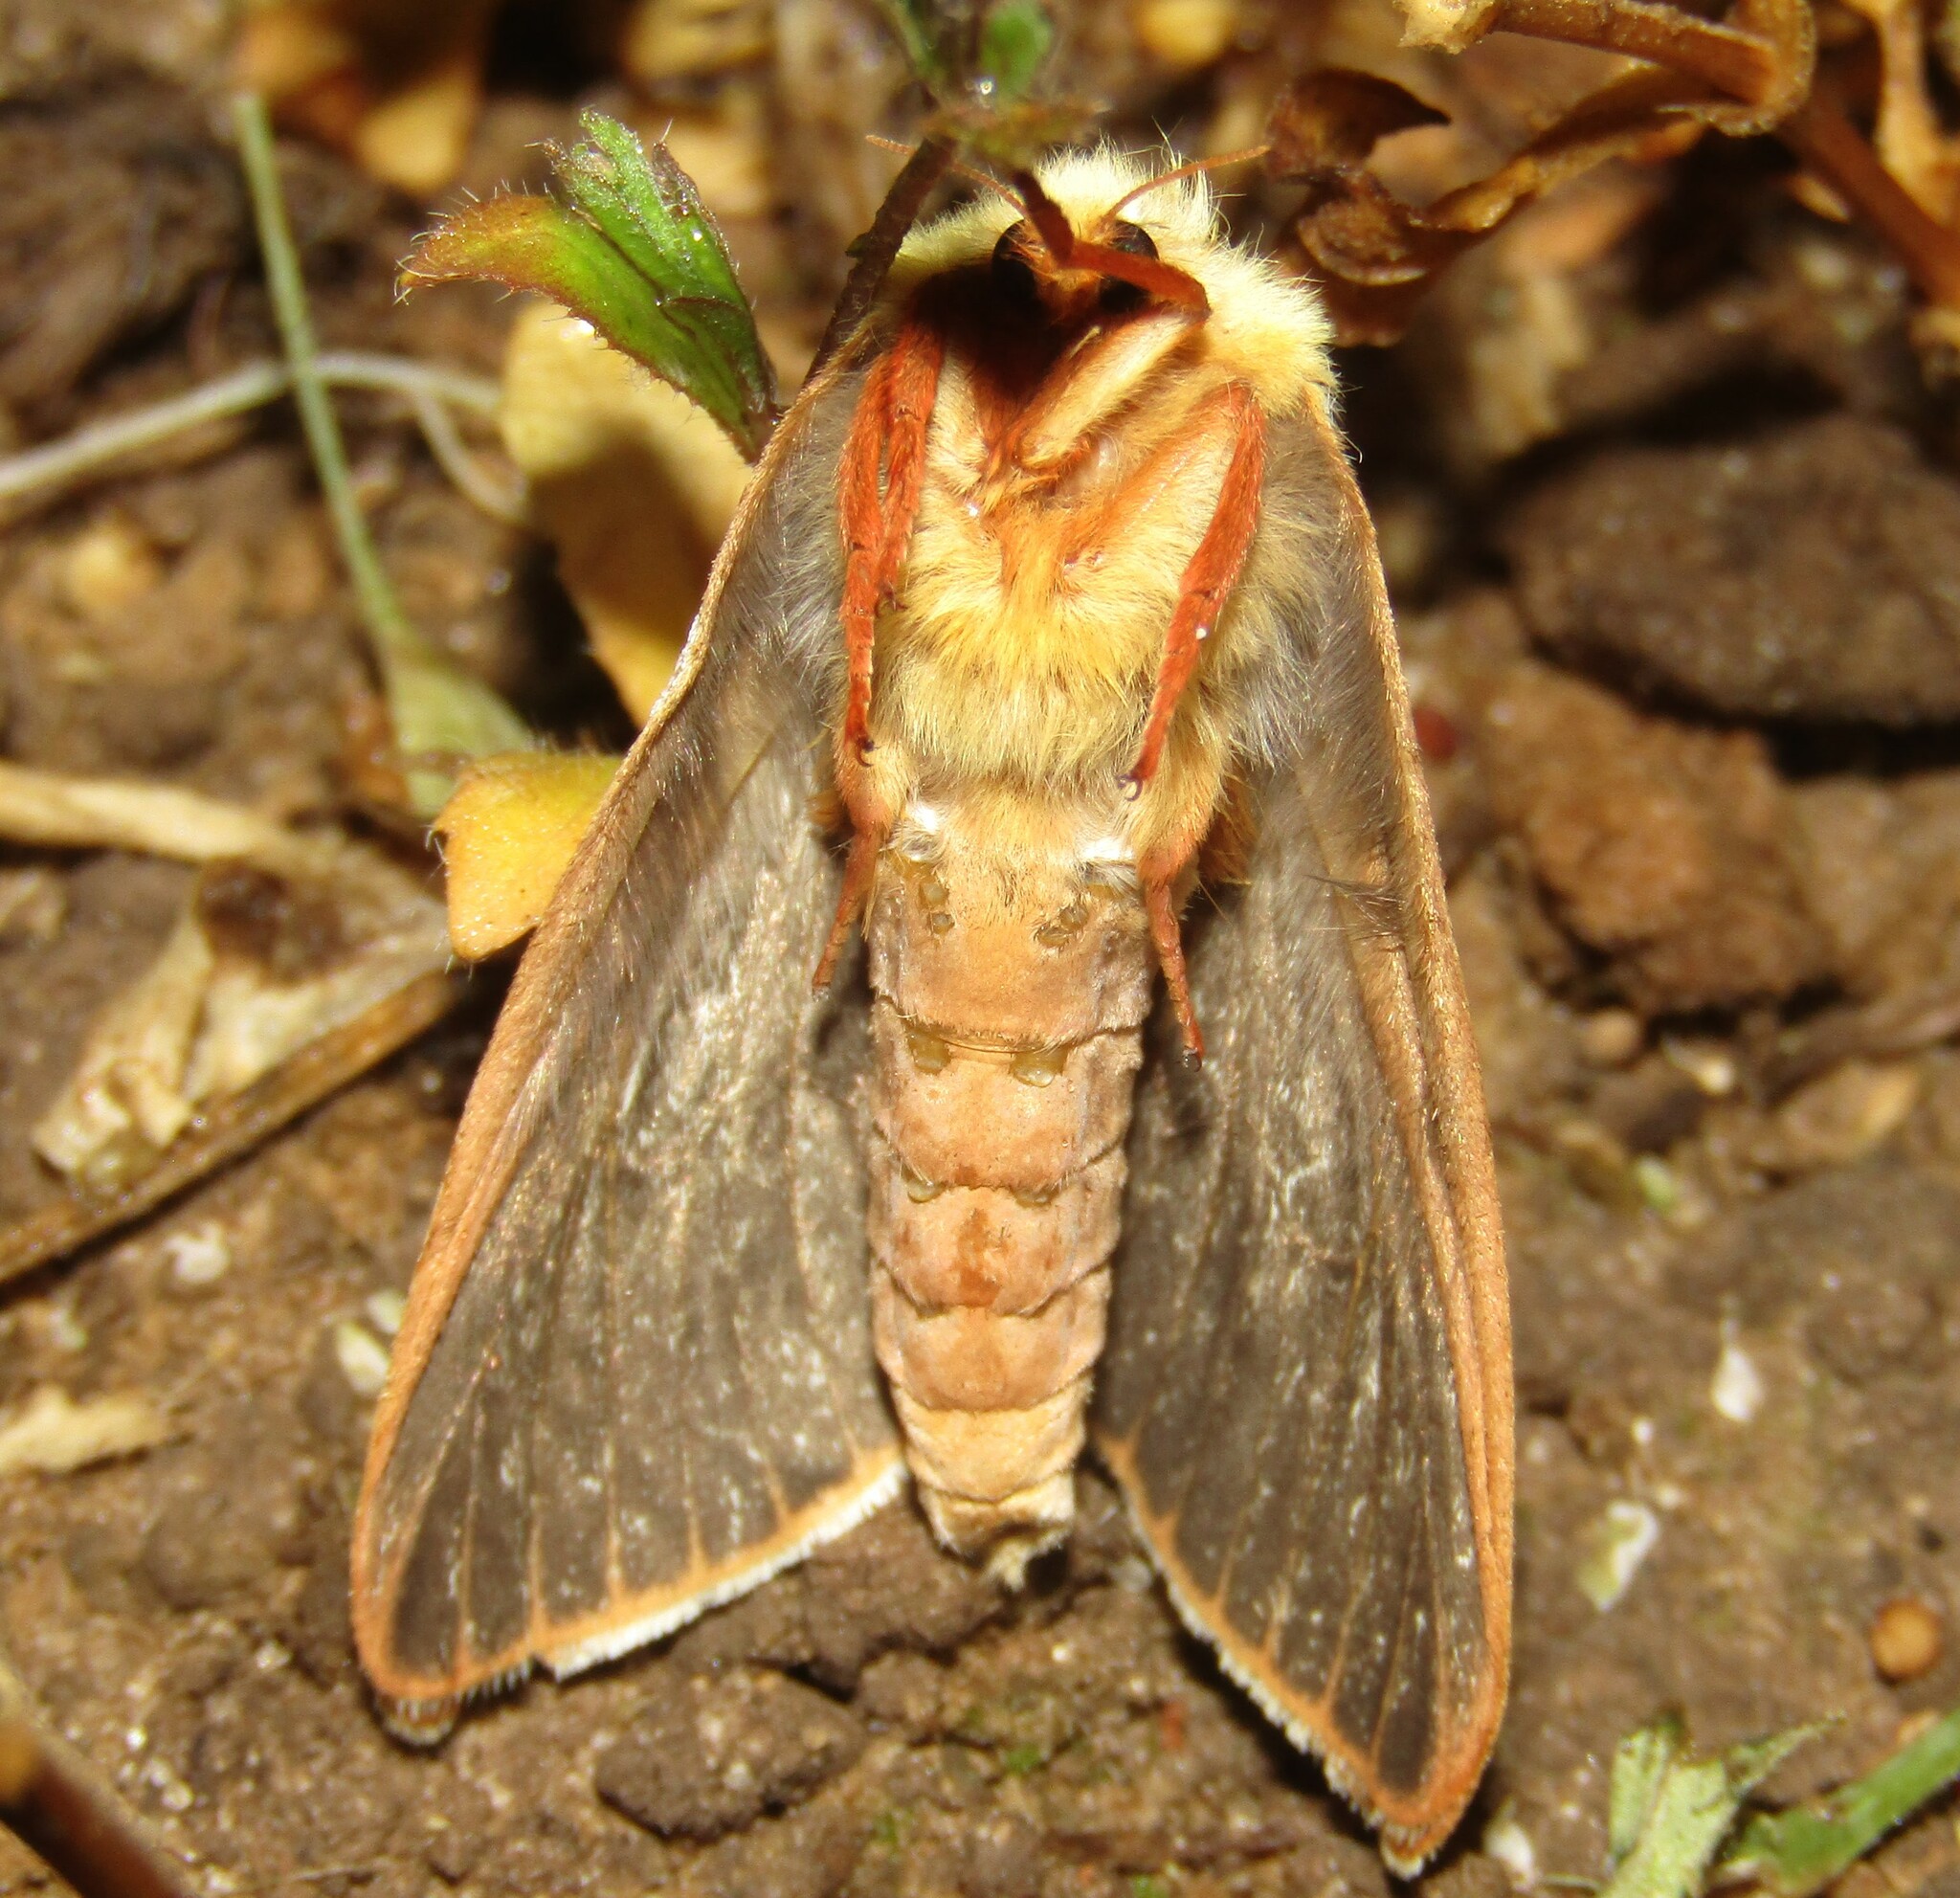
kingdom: Animalia
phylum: Arthropoda
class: Insecta
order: Lepidoptera
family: Hepialidae
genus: Hepialus
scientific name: Hepialus humuli
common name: Ghost moth
